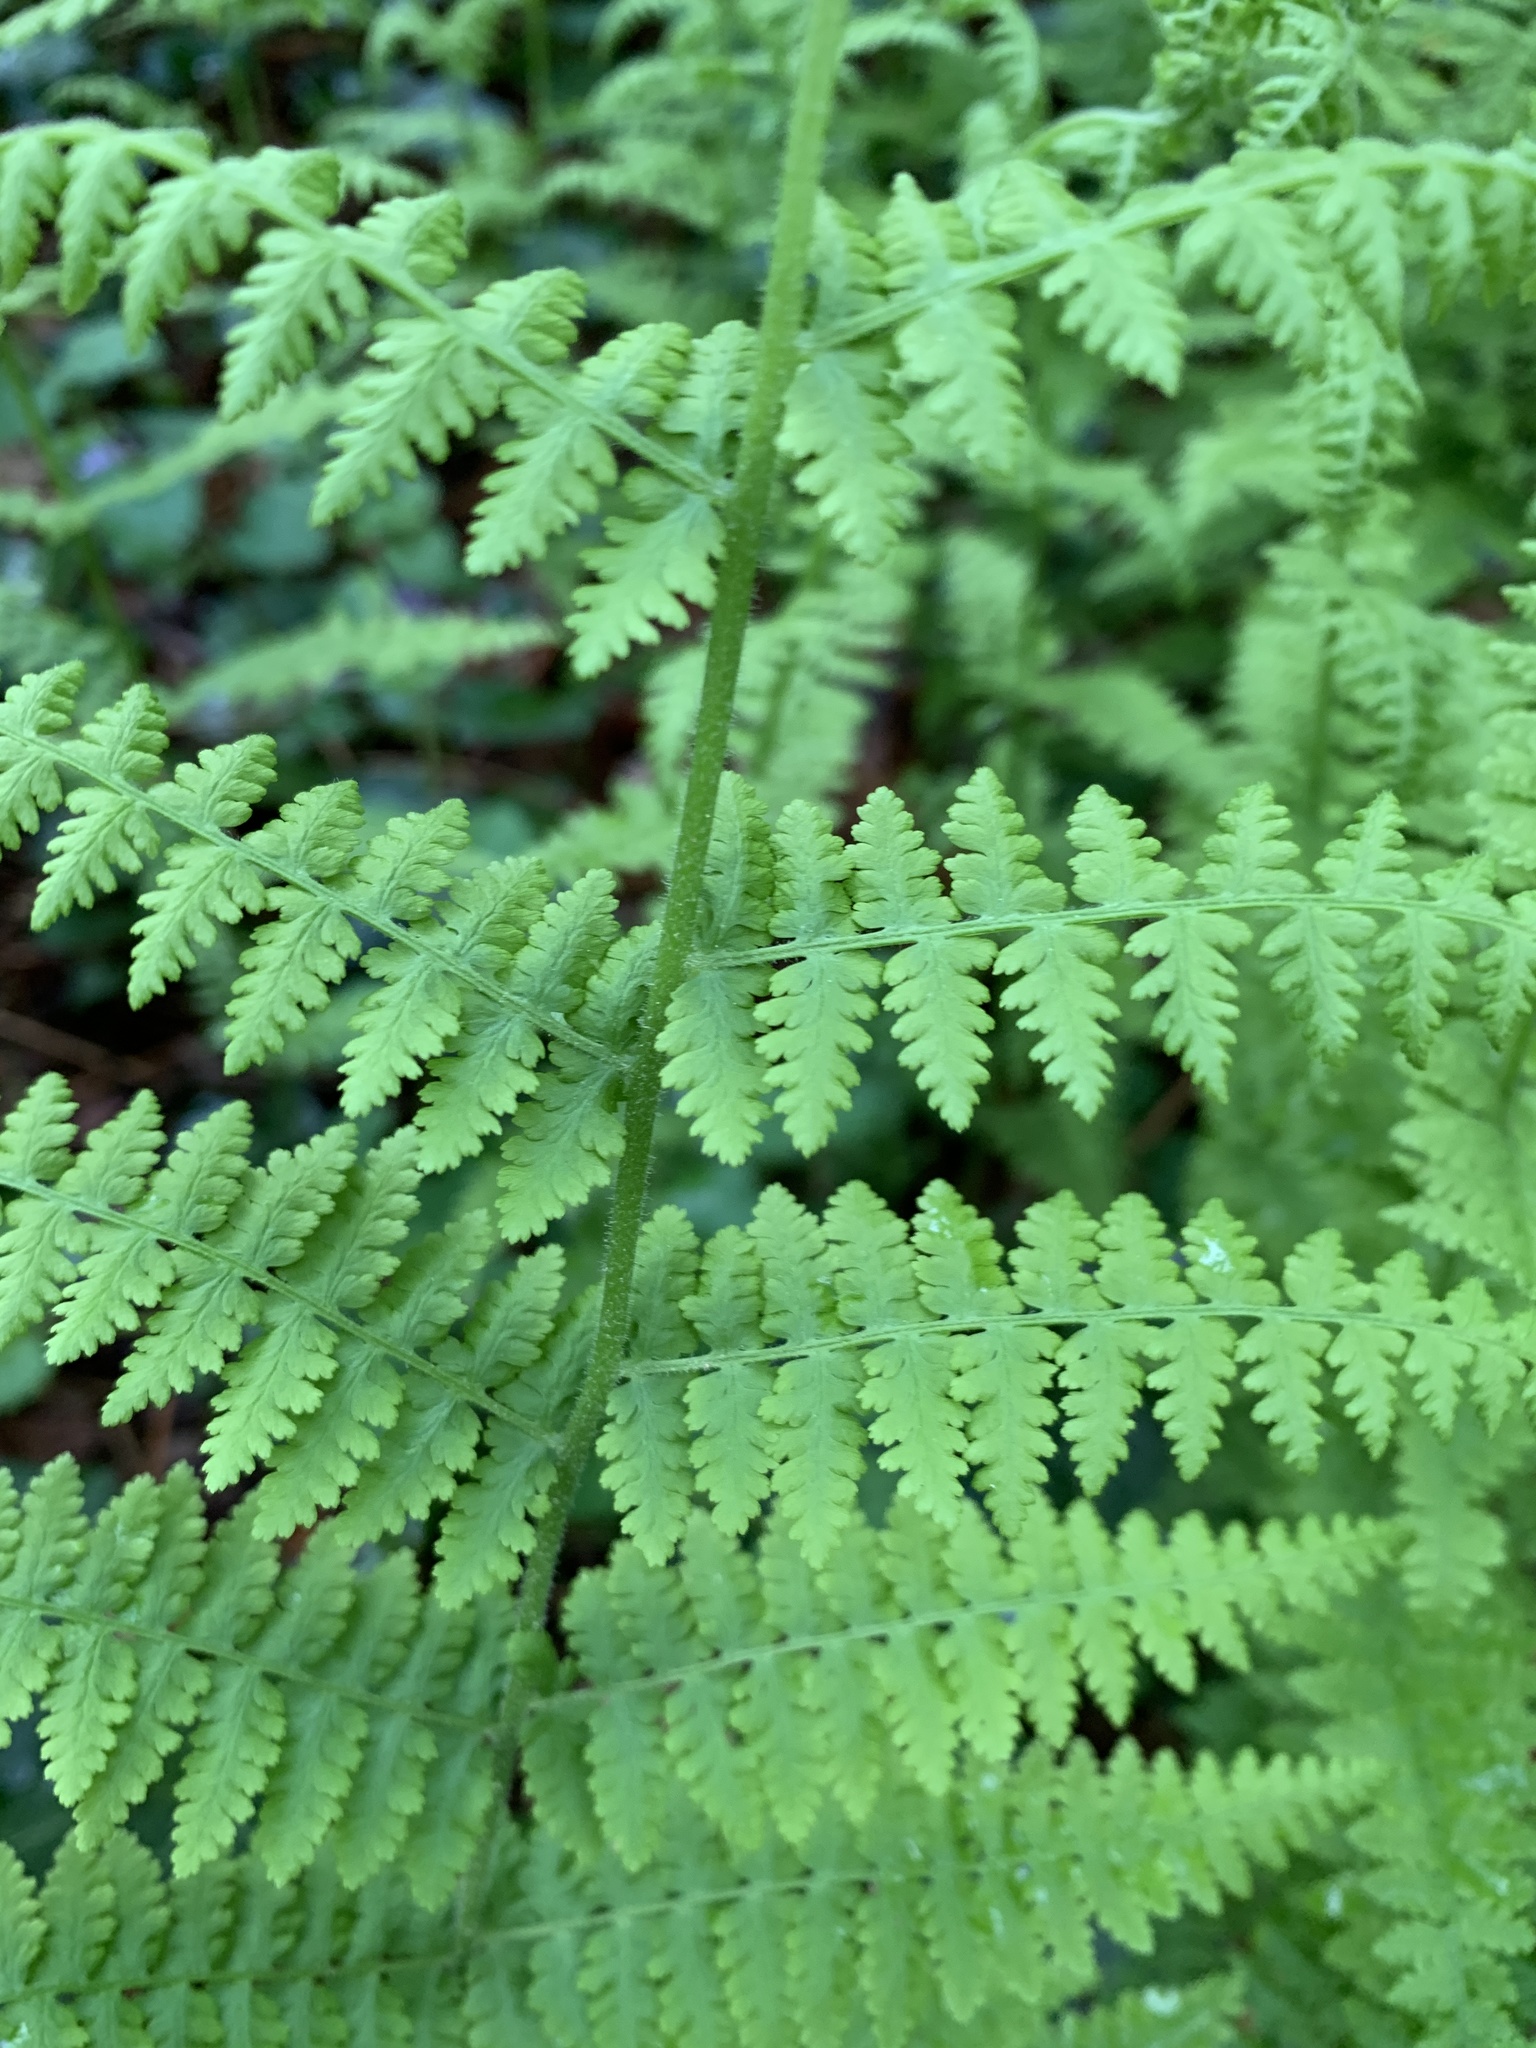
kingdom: Plantae
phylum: Tracheophyta
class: Polypodiopsida
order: Polypodiales
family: Dennstaedtiaceae
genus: Sitobolium
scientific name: Sitobolium punctilobum
